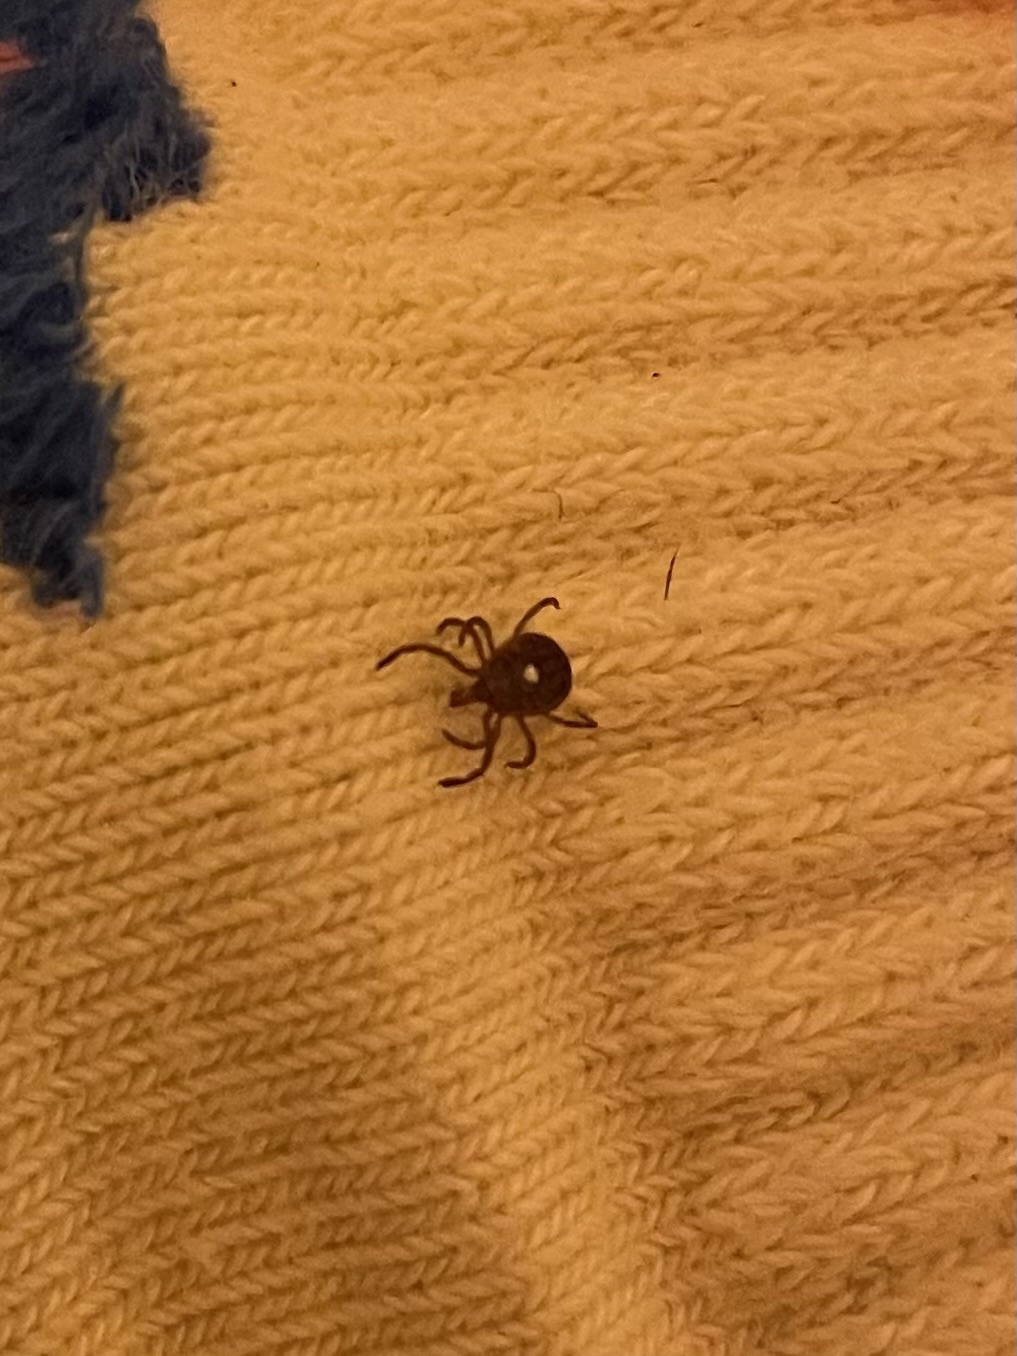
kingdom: Animalia
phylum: Arthropoda
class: Arachnida
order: Ixodida
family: Ixodidae
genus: Amblyomma
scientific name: Amblyomma americanum
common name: Lone star tick
